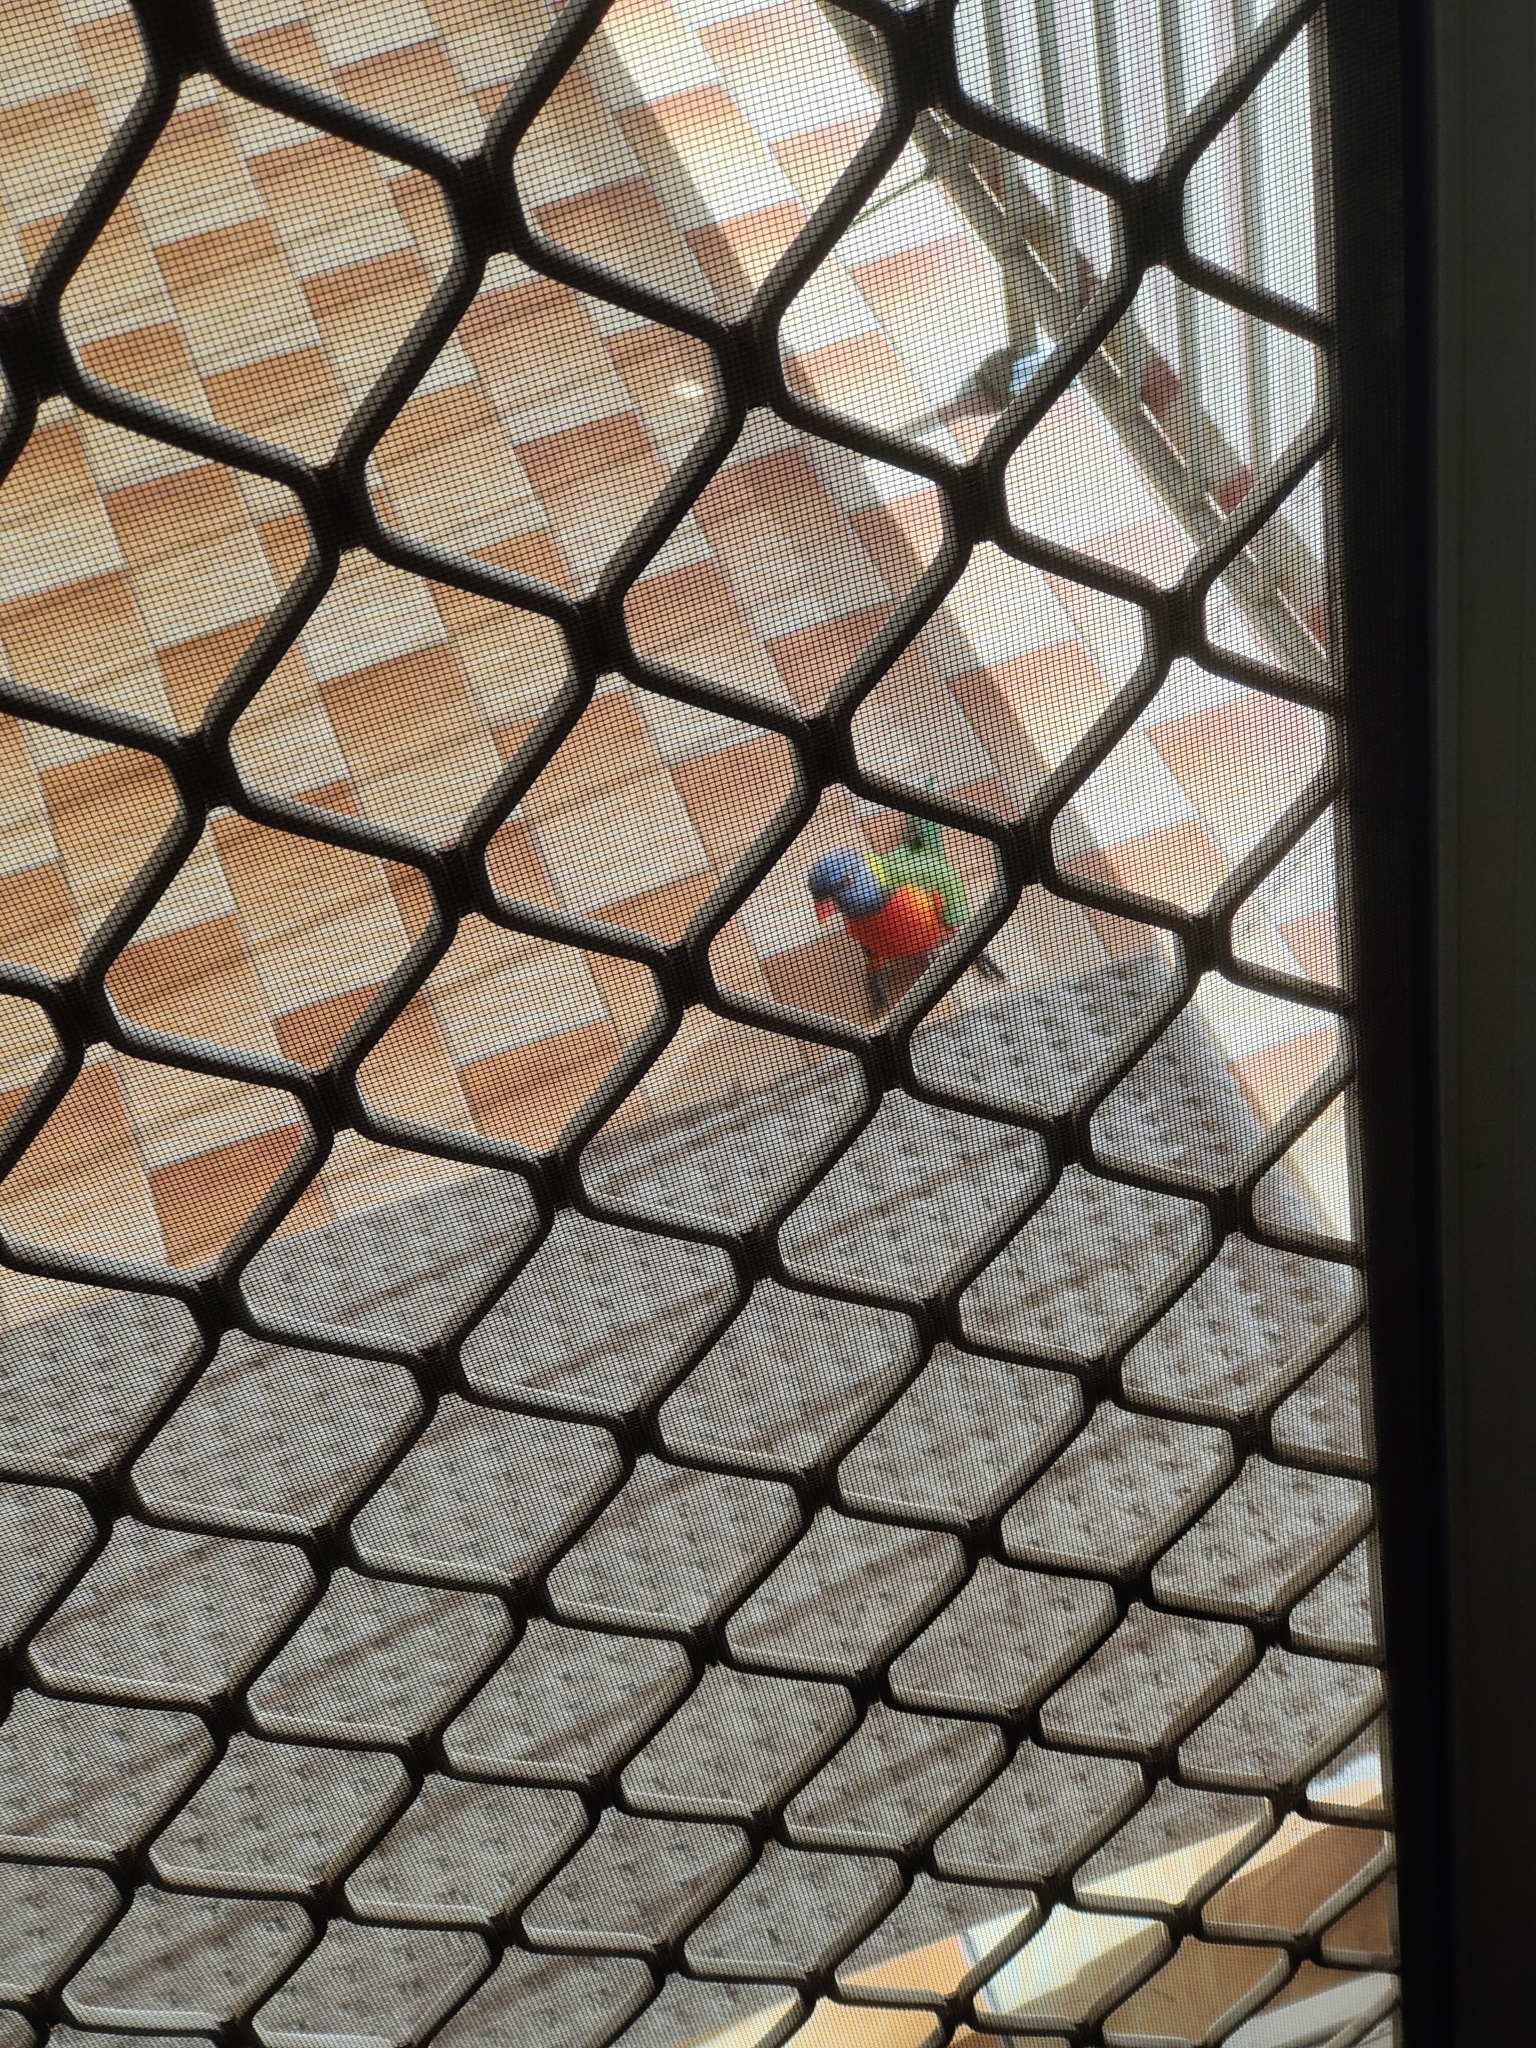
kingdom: Animalia
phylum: Chordata
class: Aves
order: Psittaciformes
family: Psittacidae
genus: Trichoglossus
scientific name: Trichoglossus haematodus
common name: Coconut lorikeet
